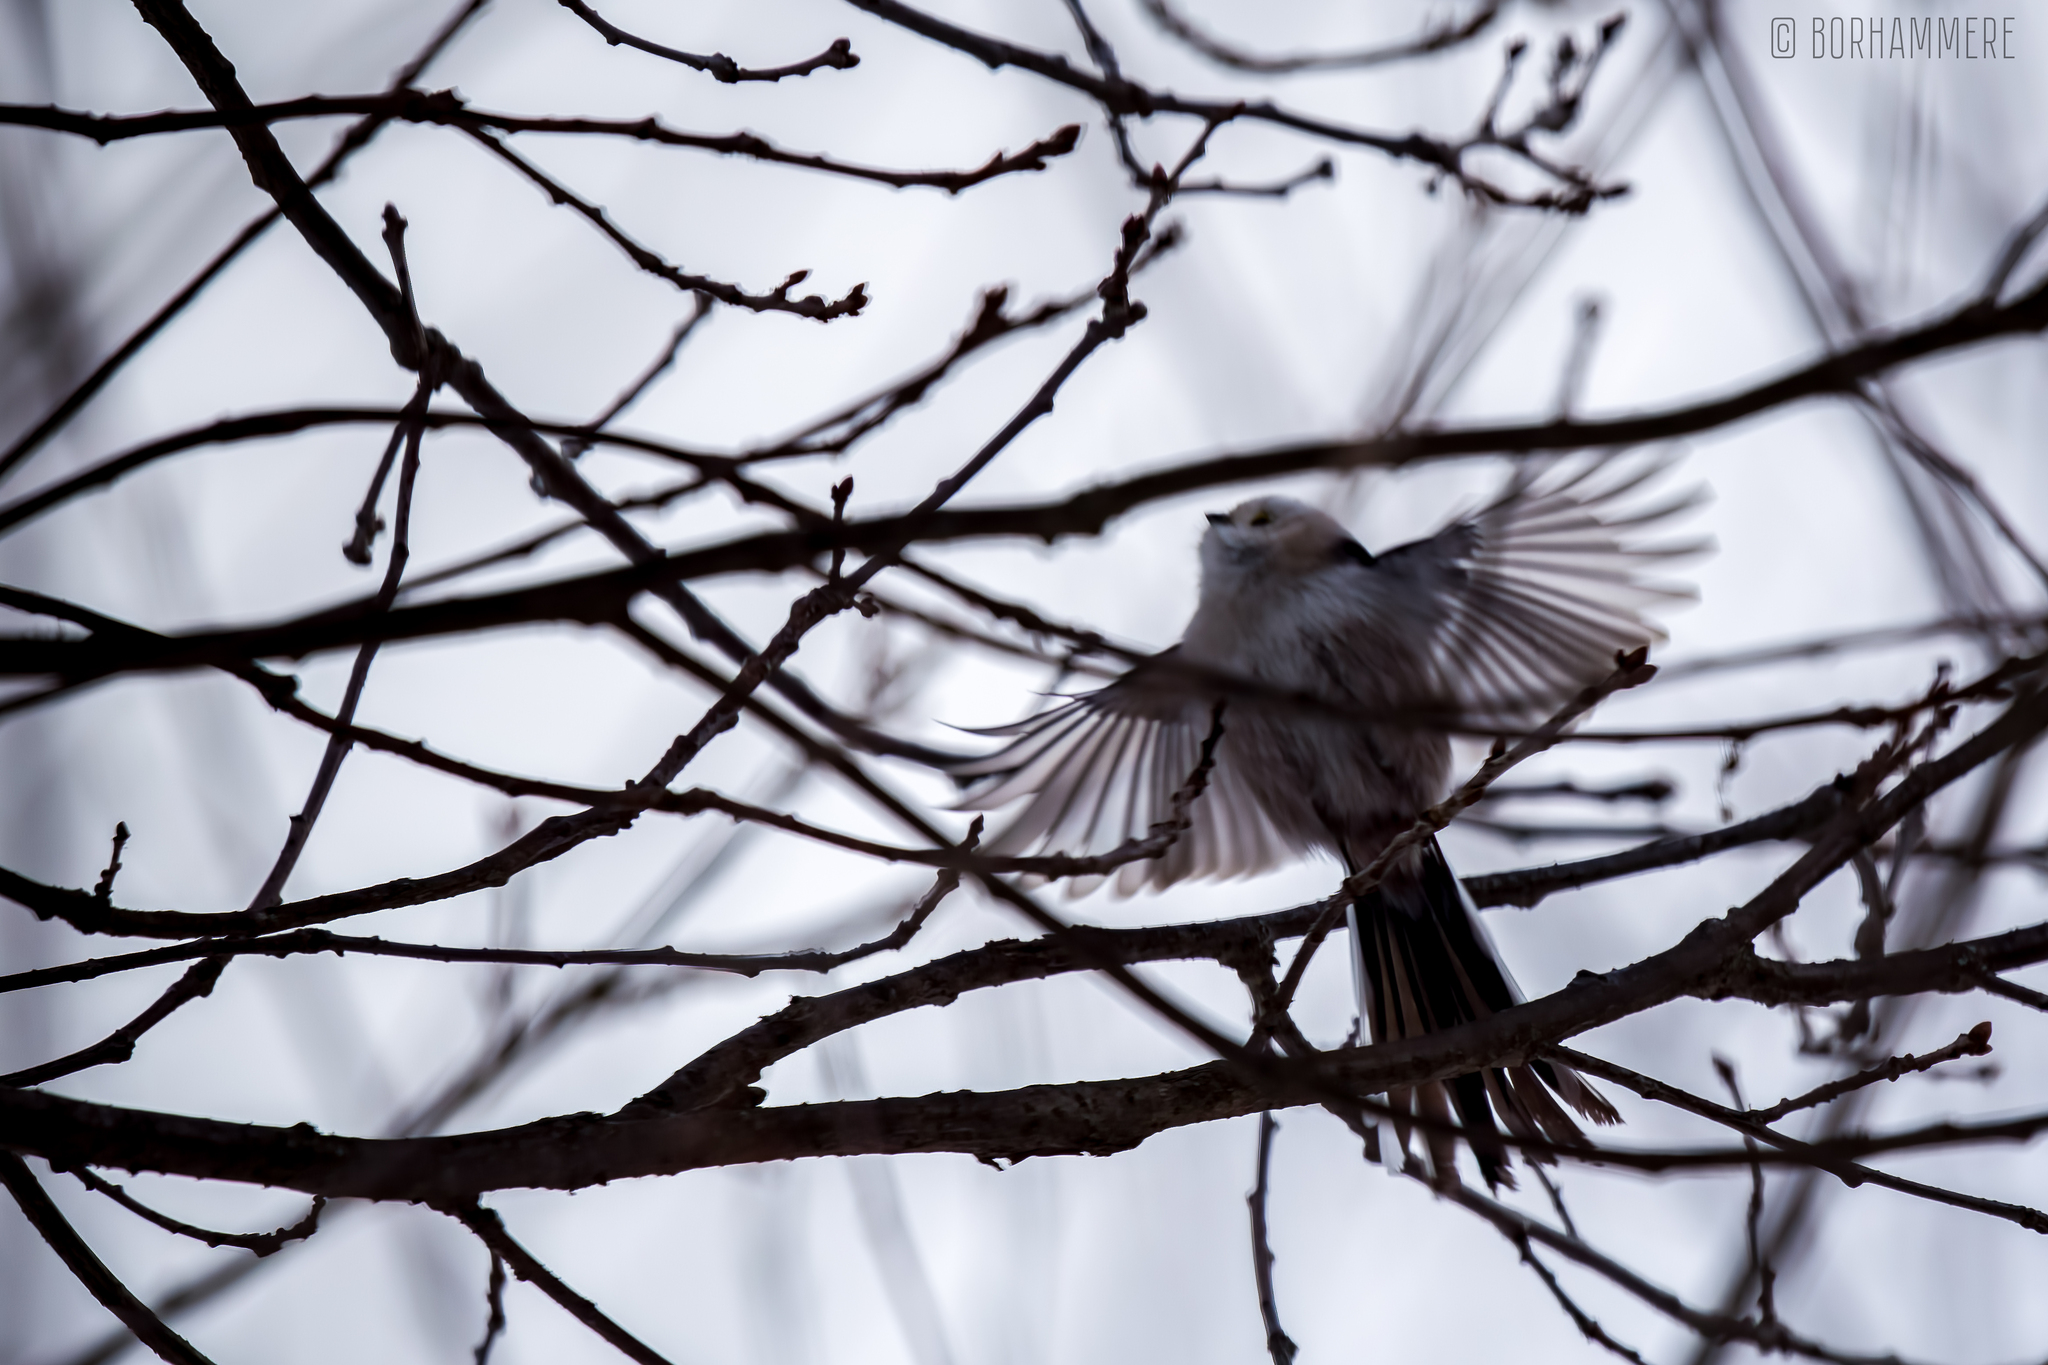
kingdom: Animalia
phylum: Chordata
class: Aves
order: Passeriformes
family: Aegithalidae
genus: Aegithalos
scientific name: Aegithalos caudatus
